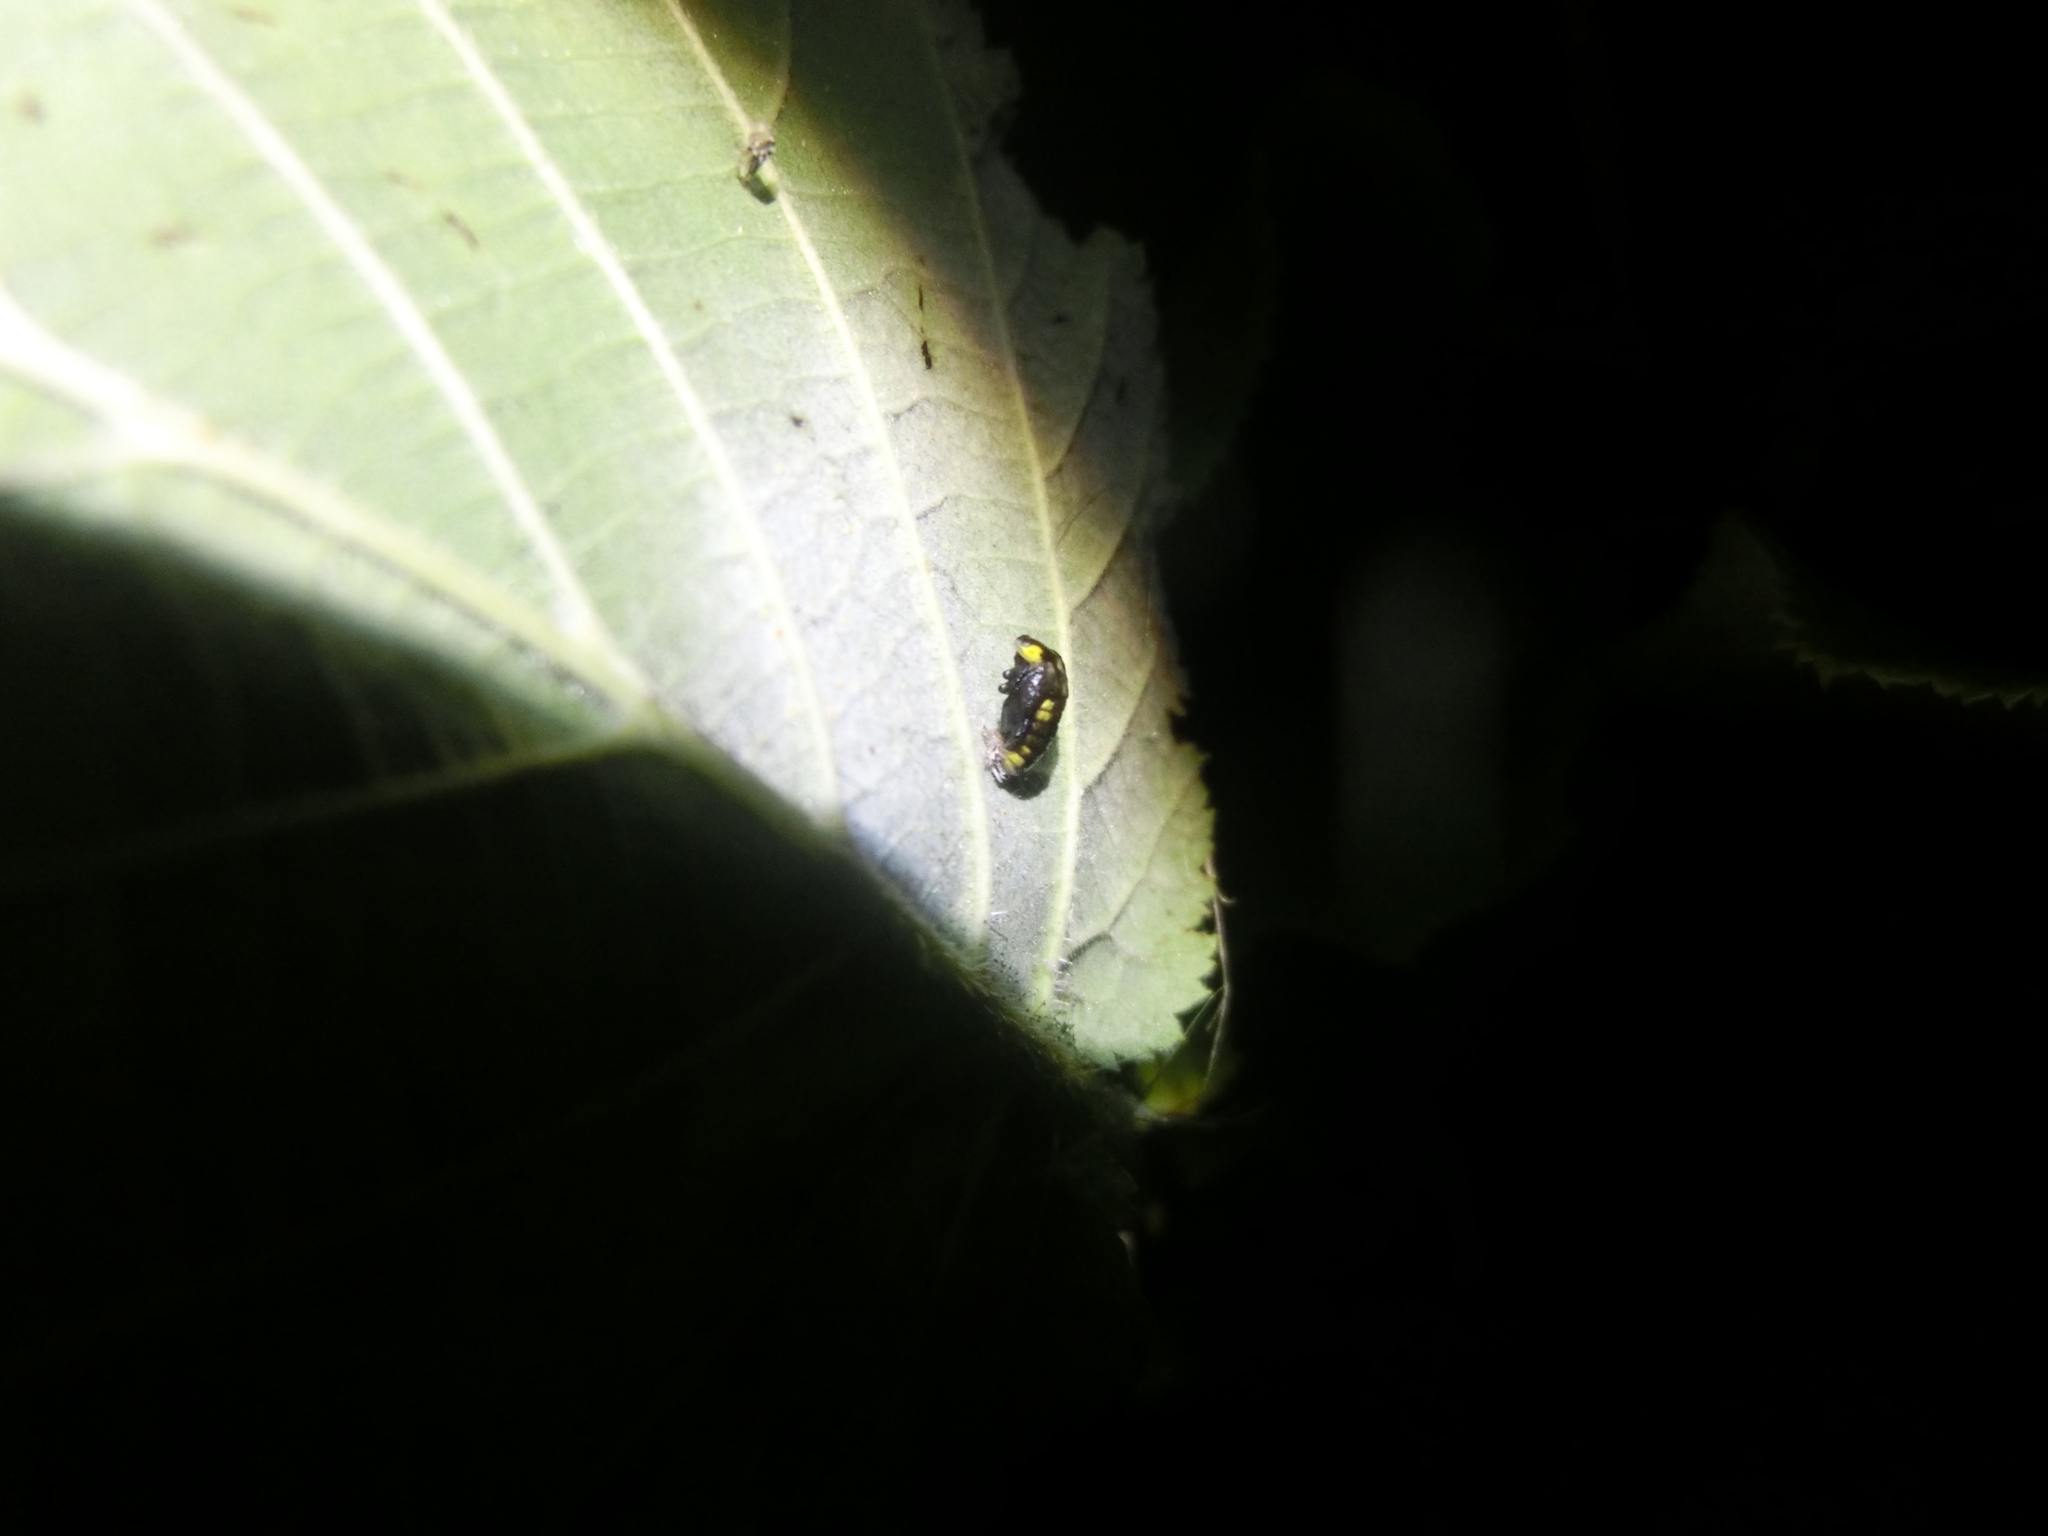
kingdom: Animalia
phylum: Arthropoda
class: Insecta
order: Coleoptera
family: Coccinellidae
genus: Halyzia
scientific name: Halyzia sedecimguttata
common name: Orange ladybird
